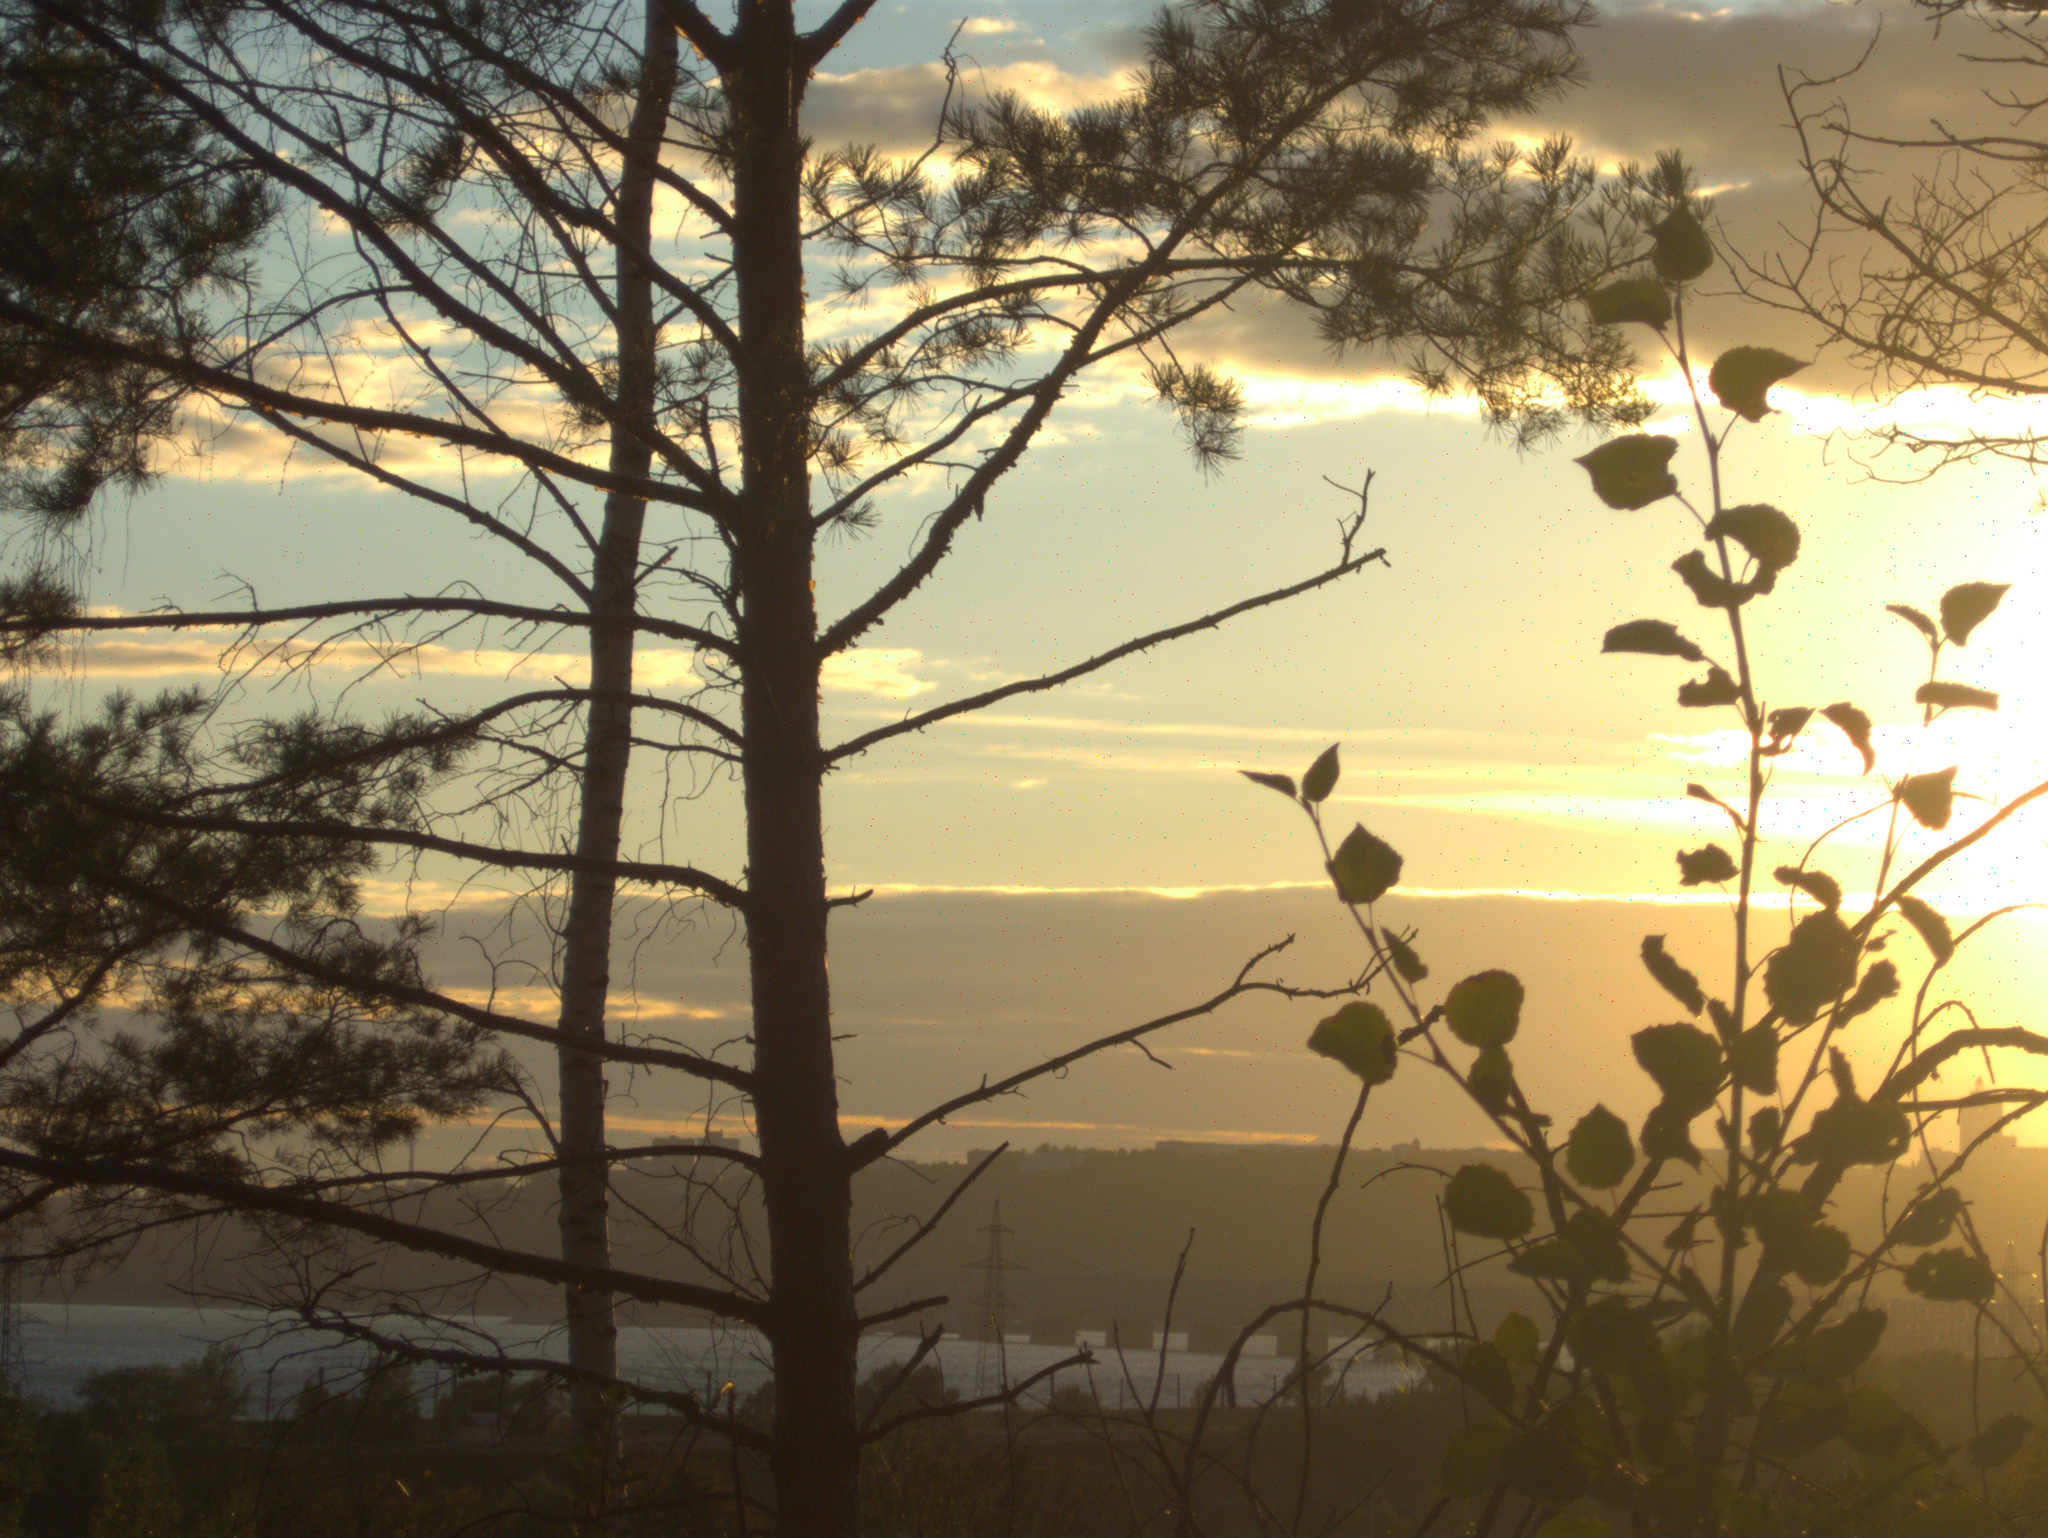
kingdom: Plantae
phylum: Tracheophyta
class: Pinopsida
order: Pinales
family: Pinaceae
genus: Pinus
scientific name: Pinus sylvestris
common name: Scots pine
